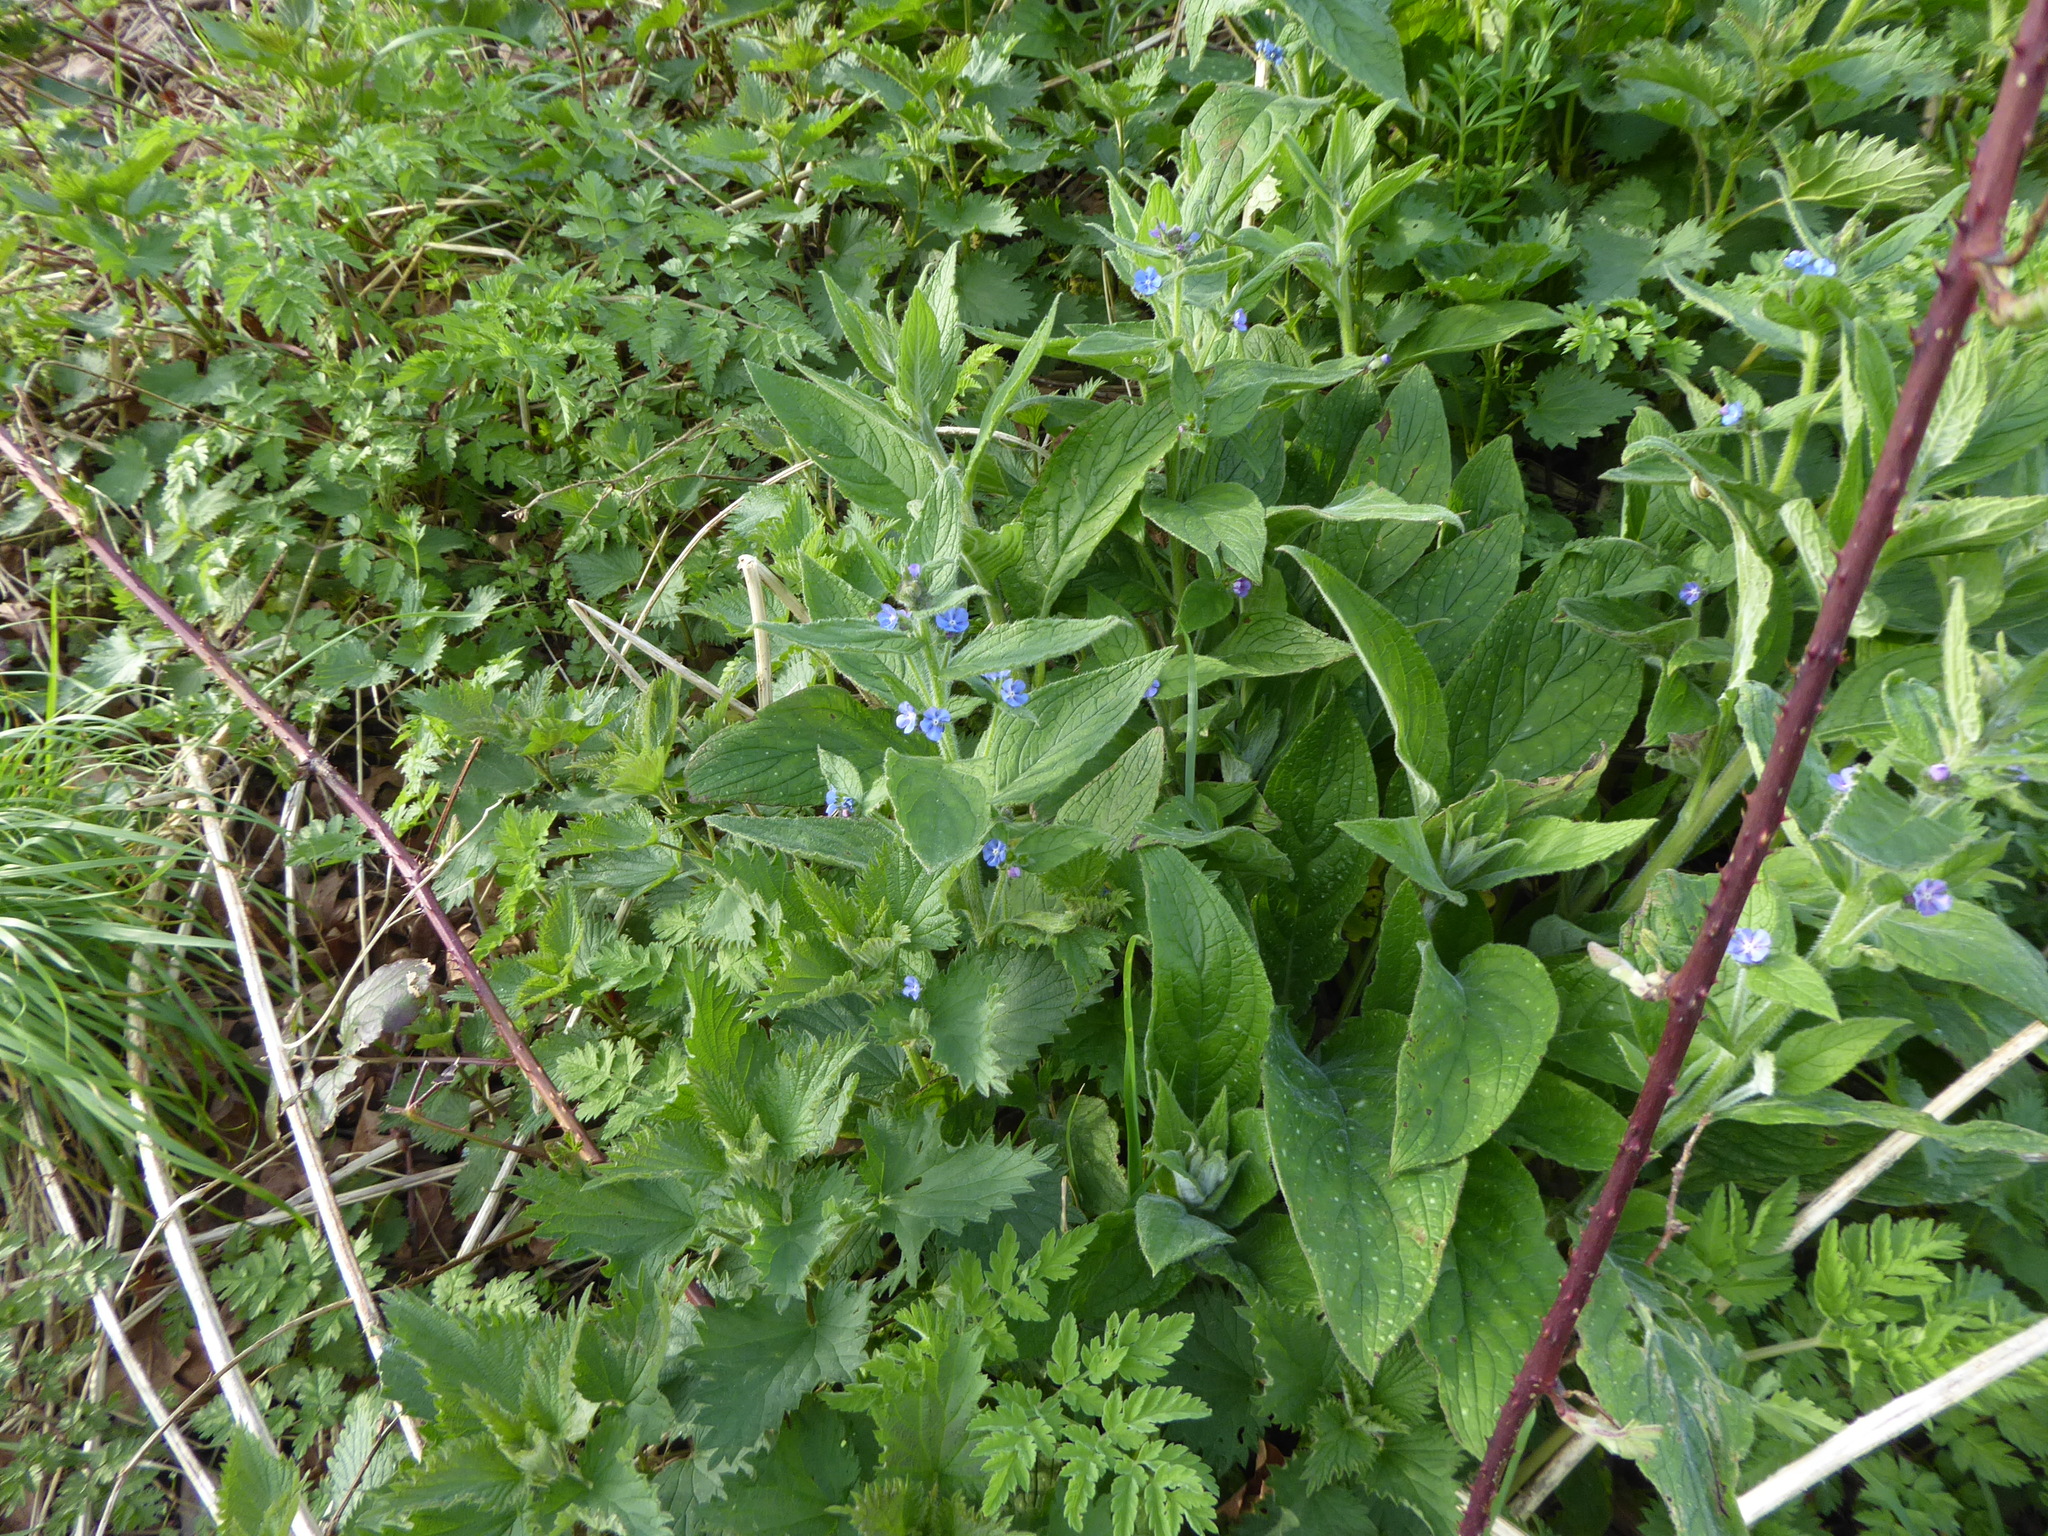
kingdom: Plantae
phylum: Tracheophyta
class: Magnoliopsida
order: Boraginales
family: Boraginaceae
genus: Pentaglottis
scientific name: Pentaglottis sempervirens
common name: Green alkanet
